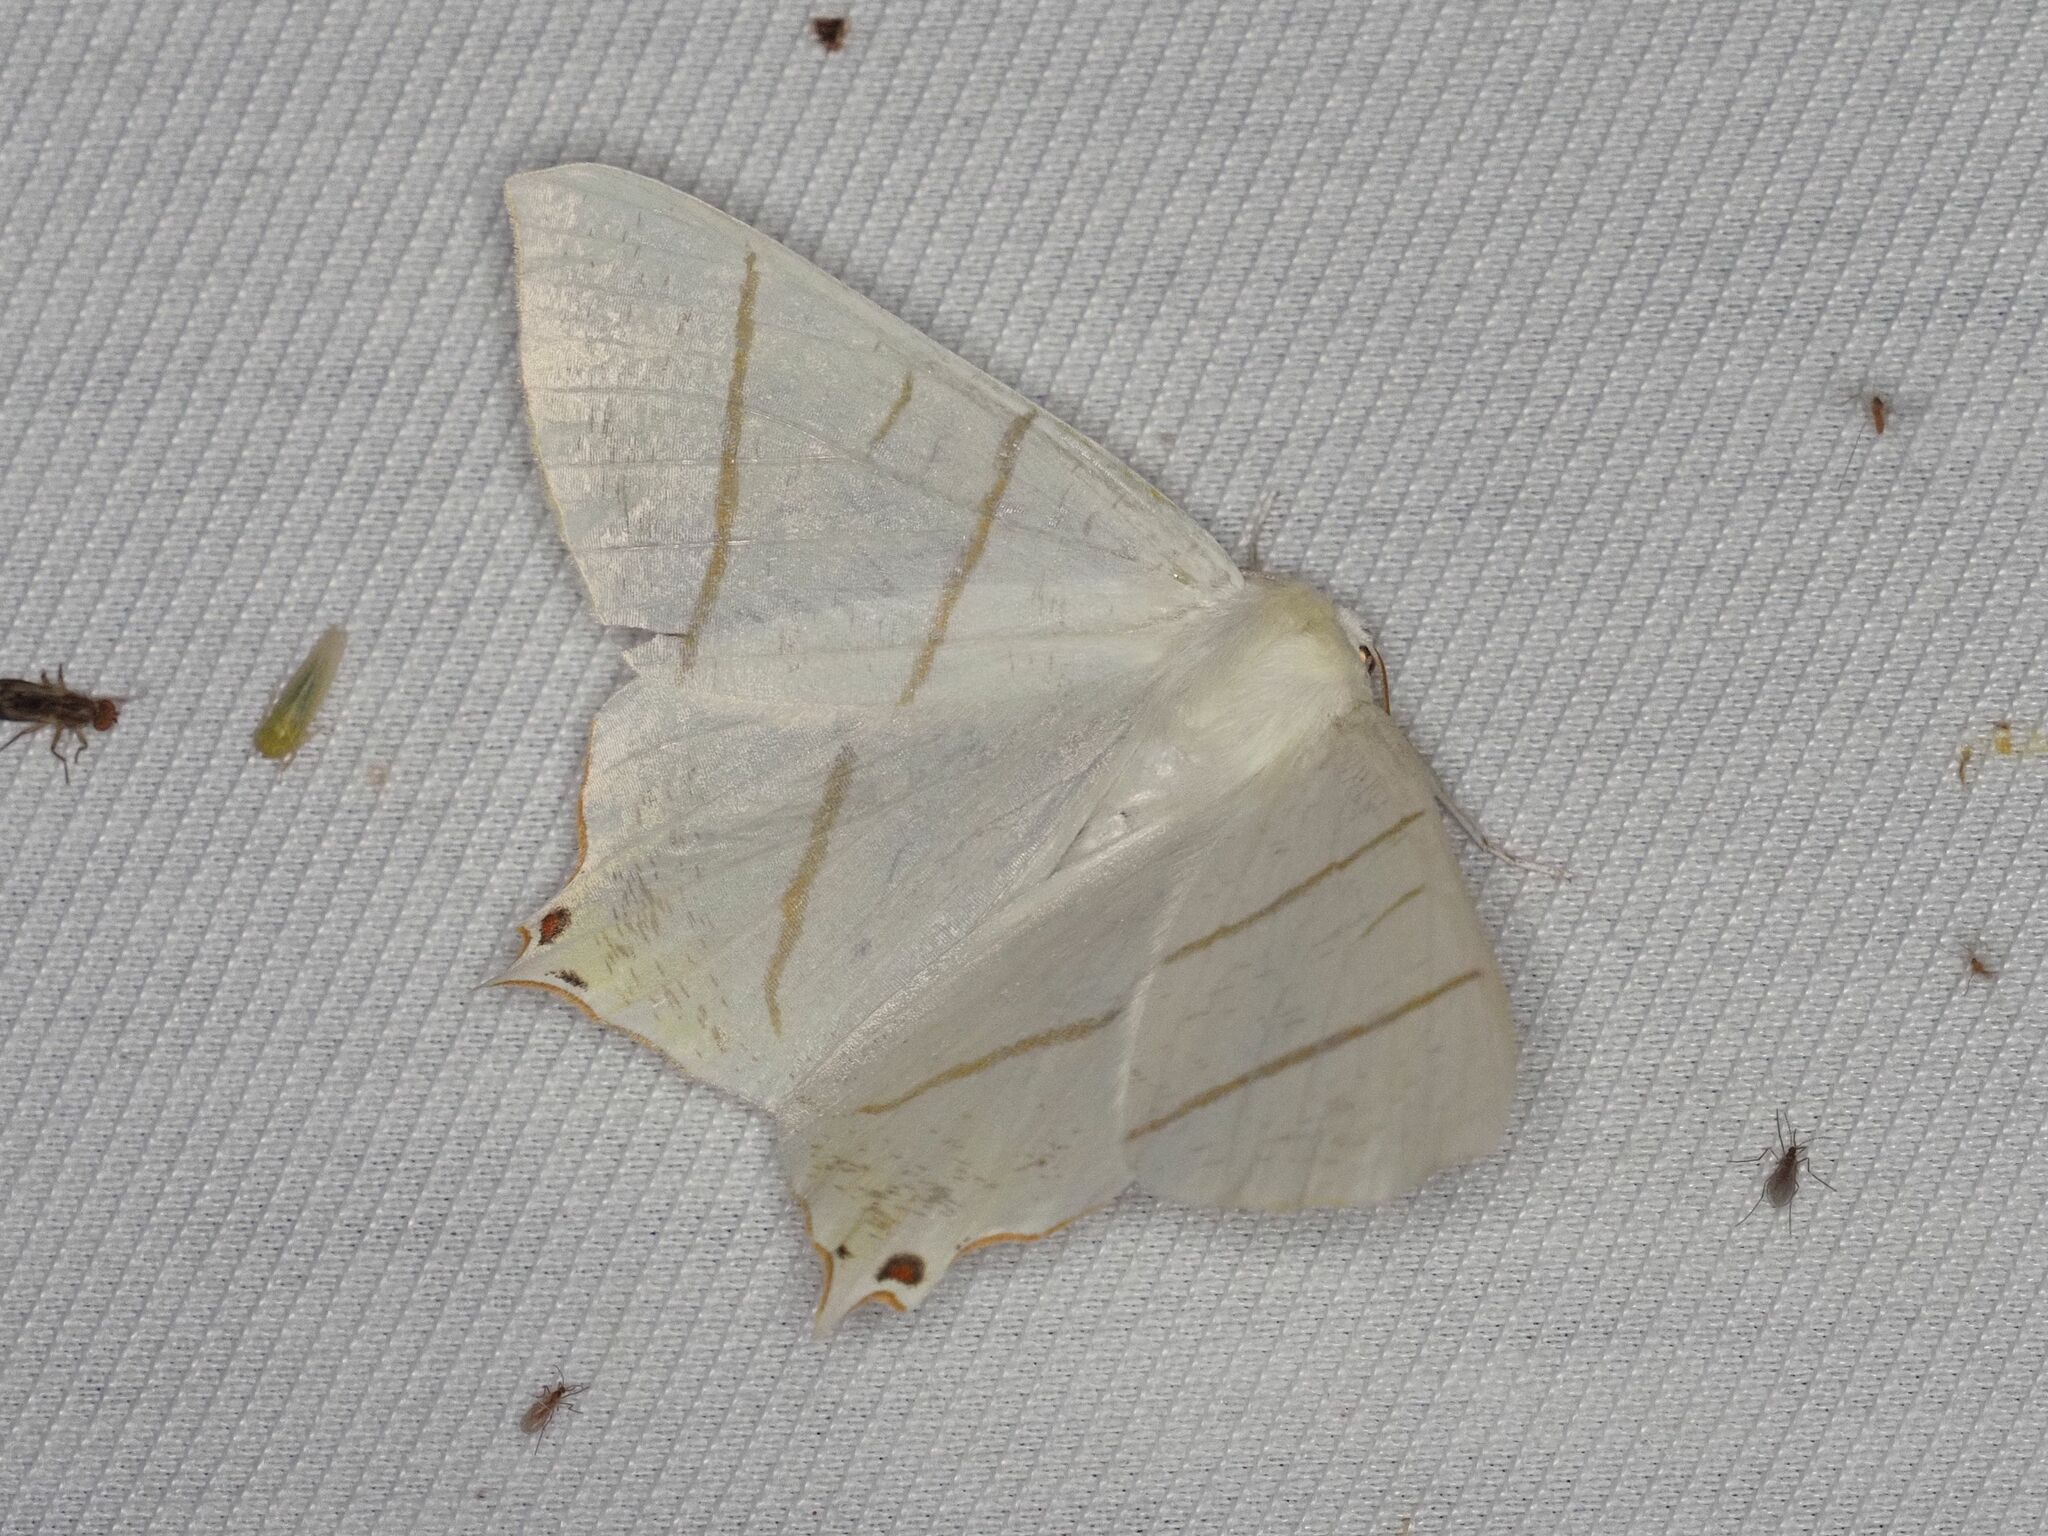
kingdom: Animalia
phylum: Arthropoda
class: Insecta
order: Lepidoptera
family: Geometridae
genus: Ourapteryx
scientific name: Ourapteryx sambucaria
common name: Swallow-tailed moth
